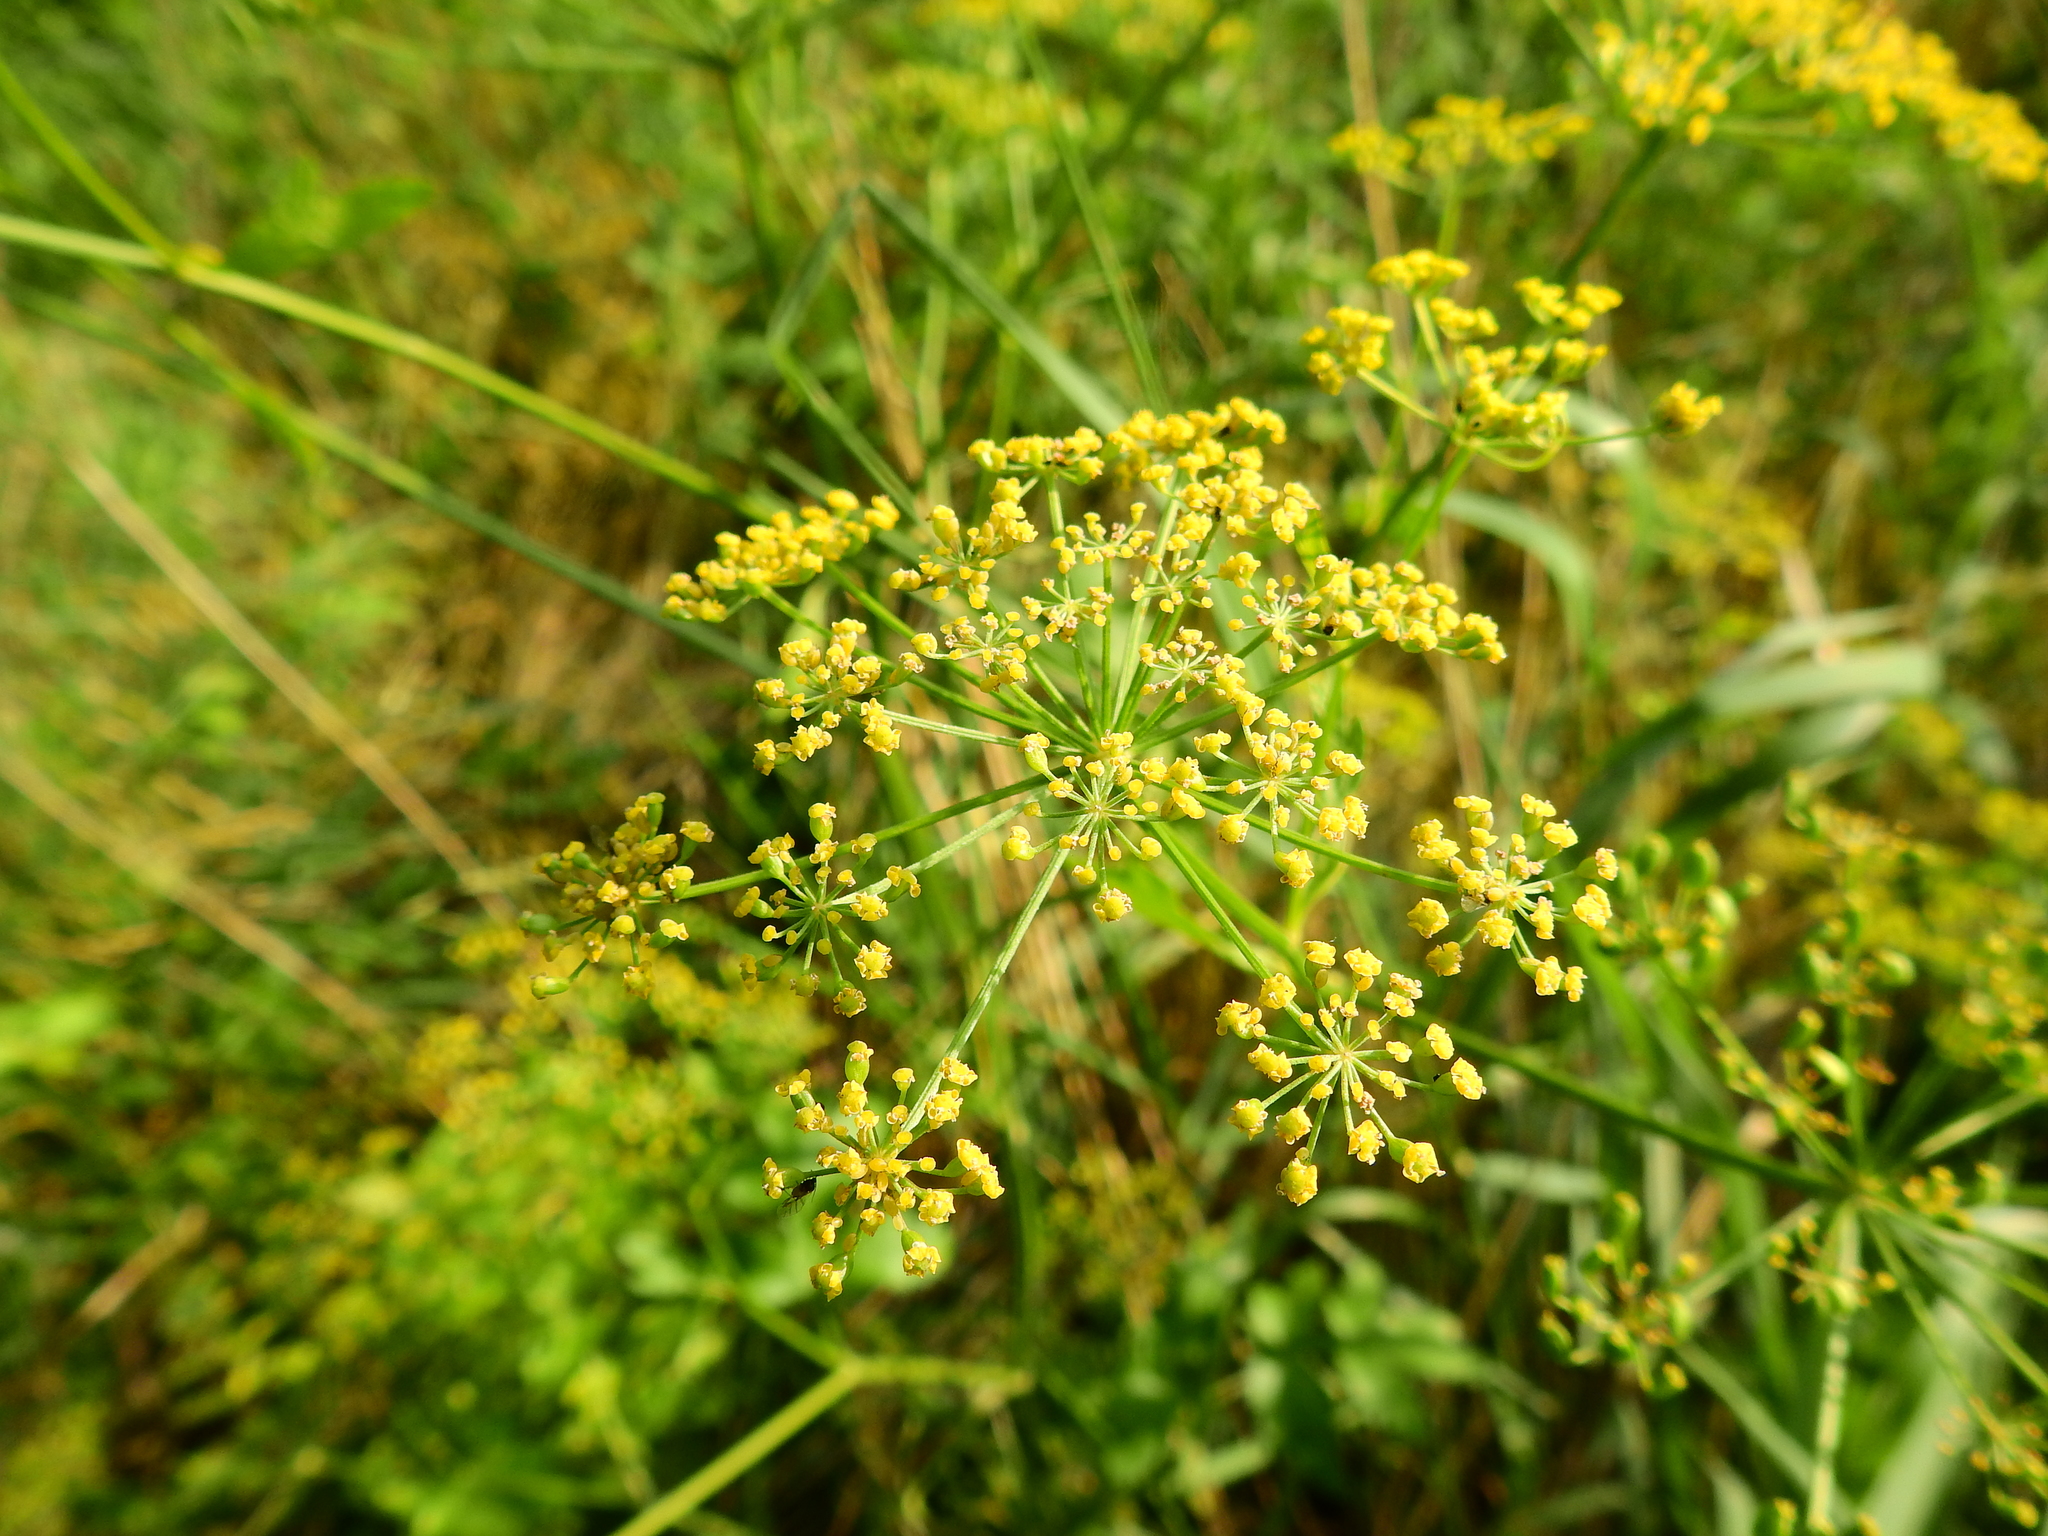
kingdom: Plantae
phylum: Tracheophyta
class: Magnoliopsida
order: Apiales
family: Apiaceae
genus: Pastinaca
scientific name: Pastinaca sativa
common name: Wild parsnip
